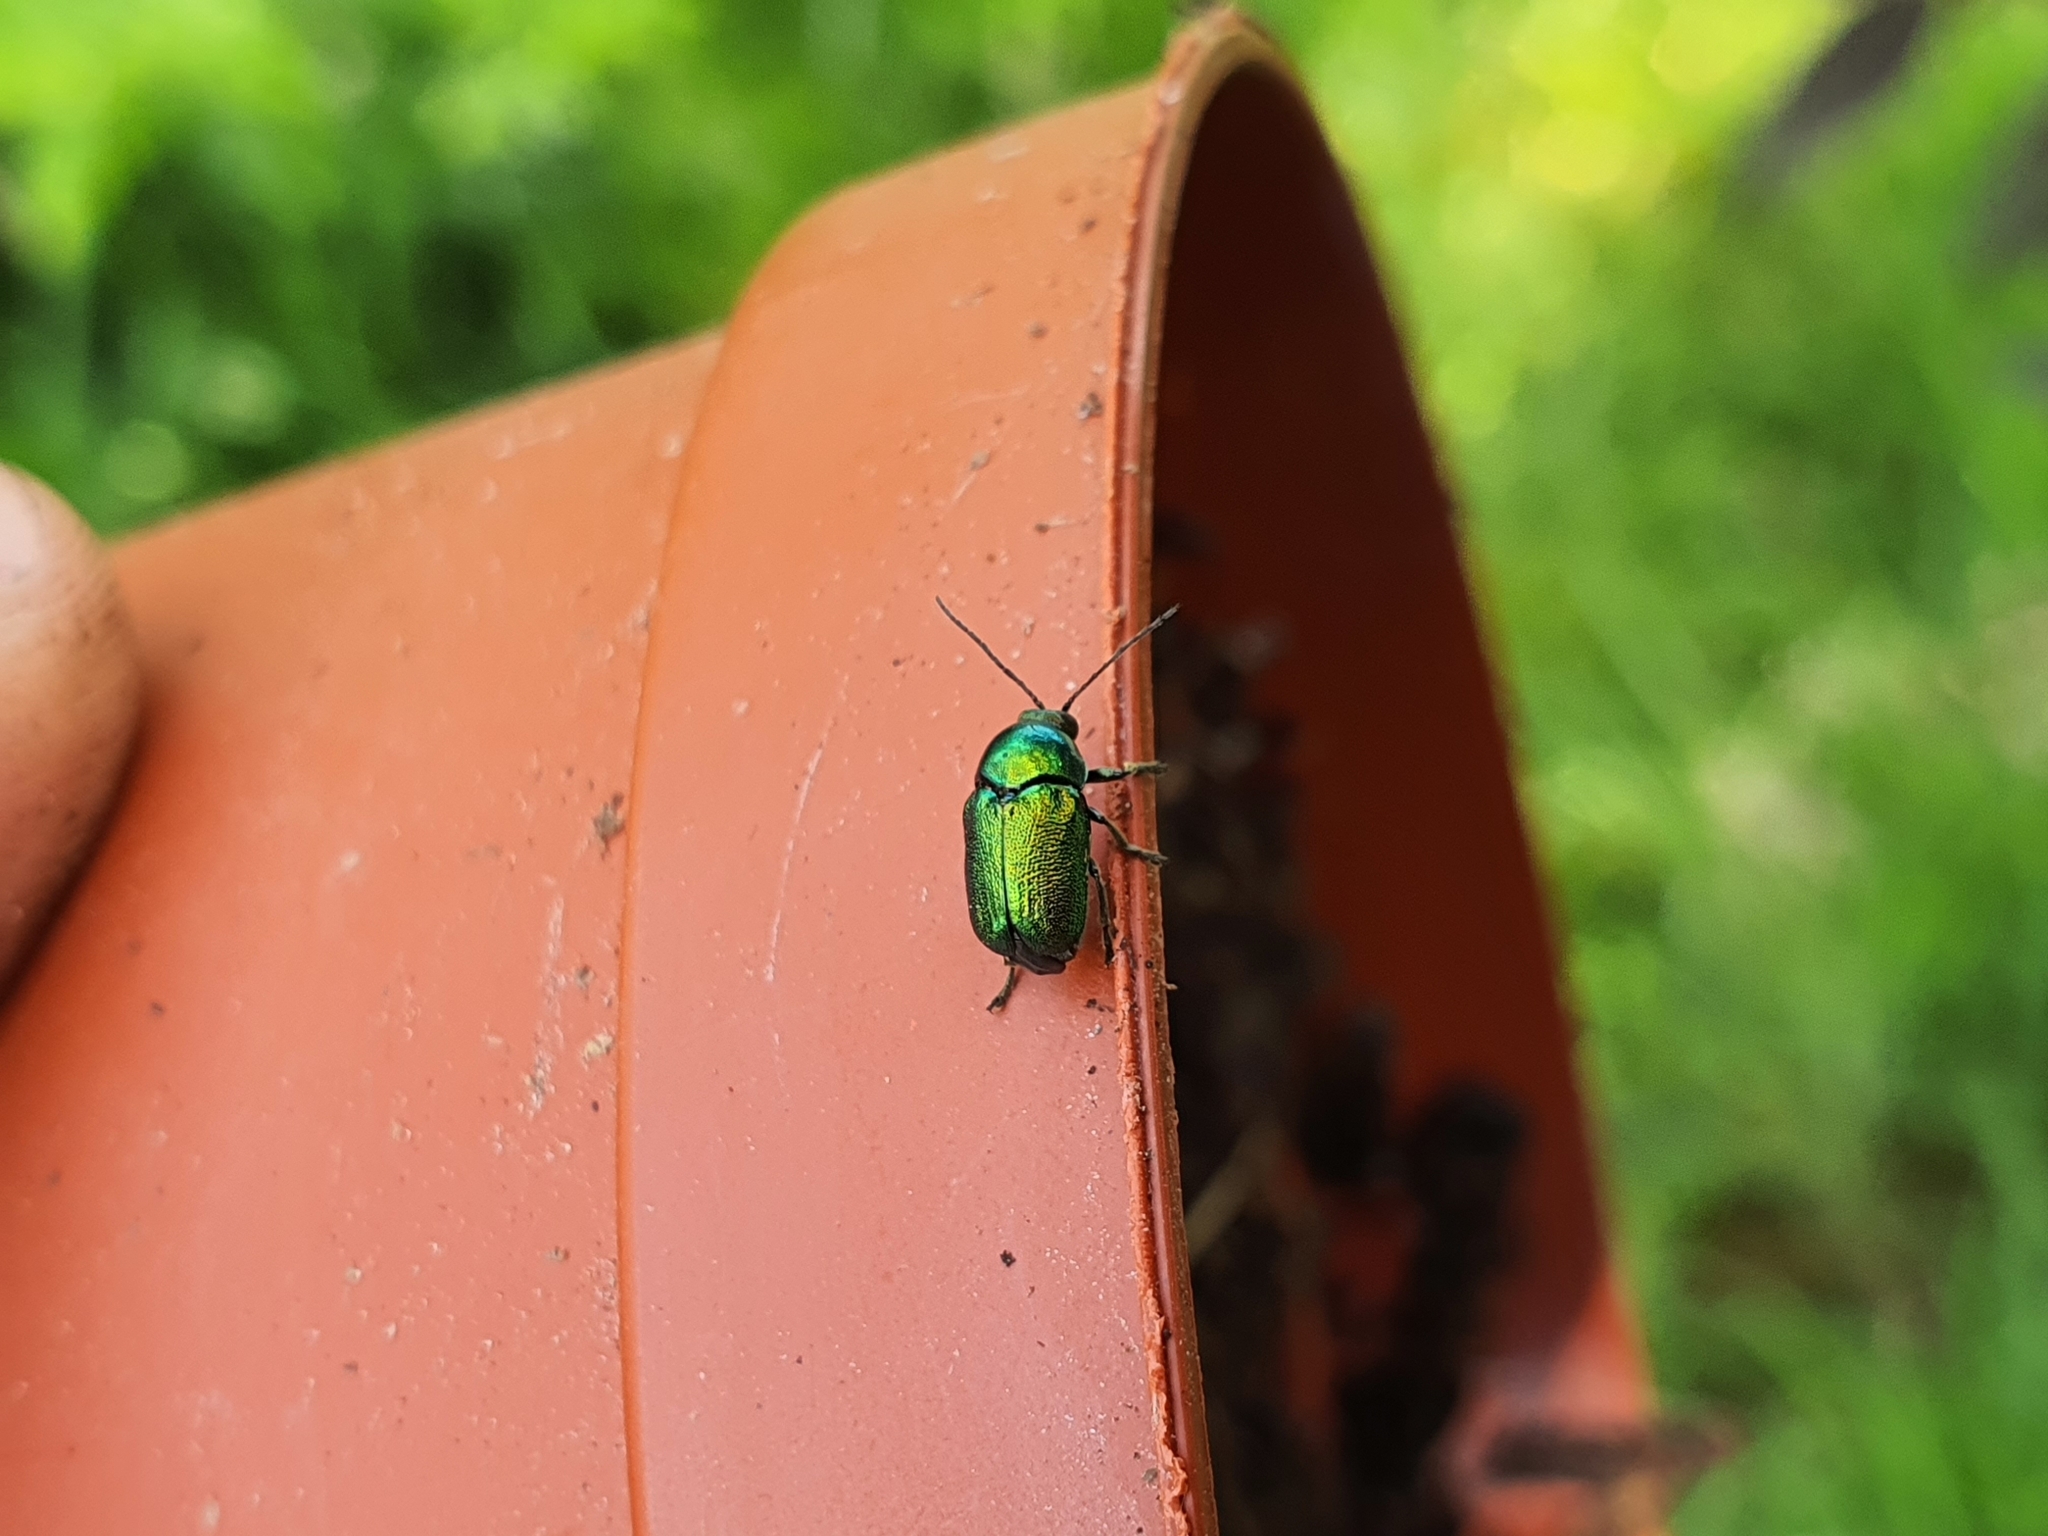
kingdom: Animalia
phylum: Arthropoda
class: Insecta
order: Coleoptera
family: Chrysomelidae
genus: Cryptocephalus
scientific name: Cryptocephalus
